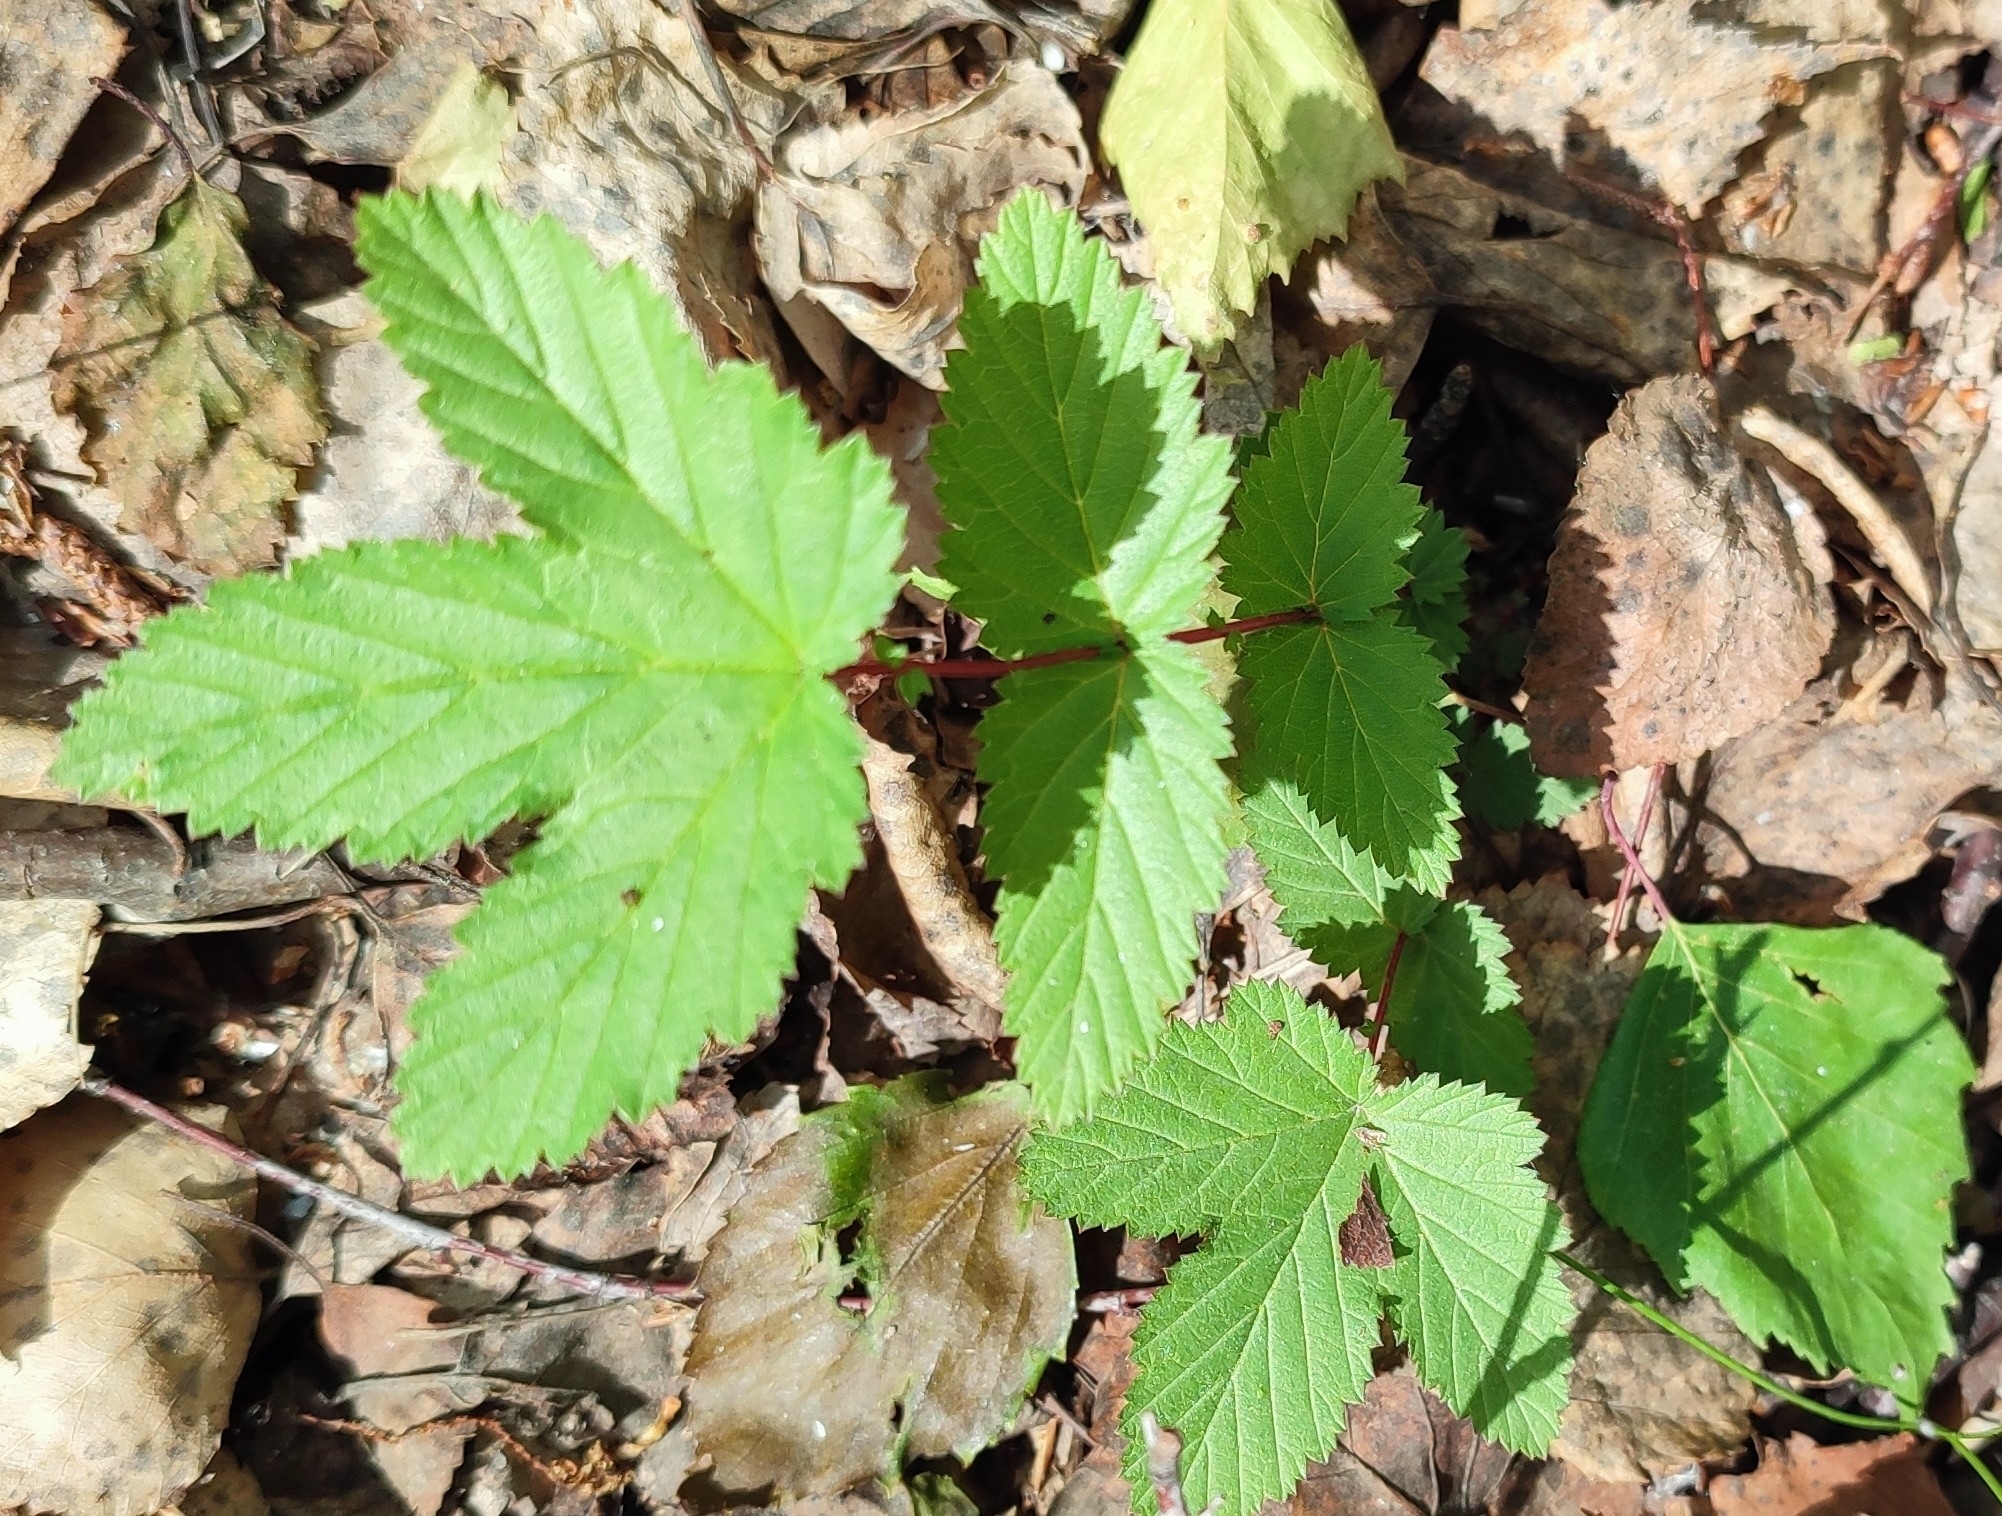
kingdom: Plantae
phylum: Tracheophyta
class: Magnoliopsida
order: Rosales
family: Rosaceae
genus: Filipendula
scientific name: Filipendula ulmaria
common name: Meadowsweet
